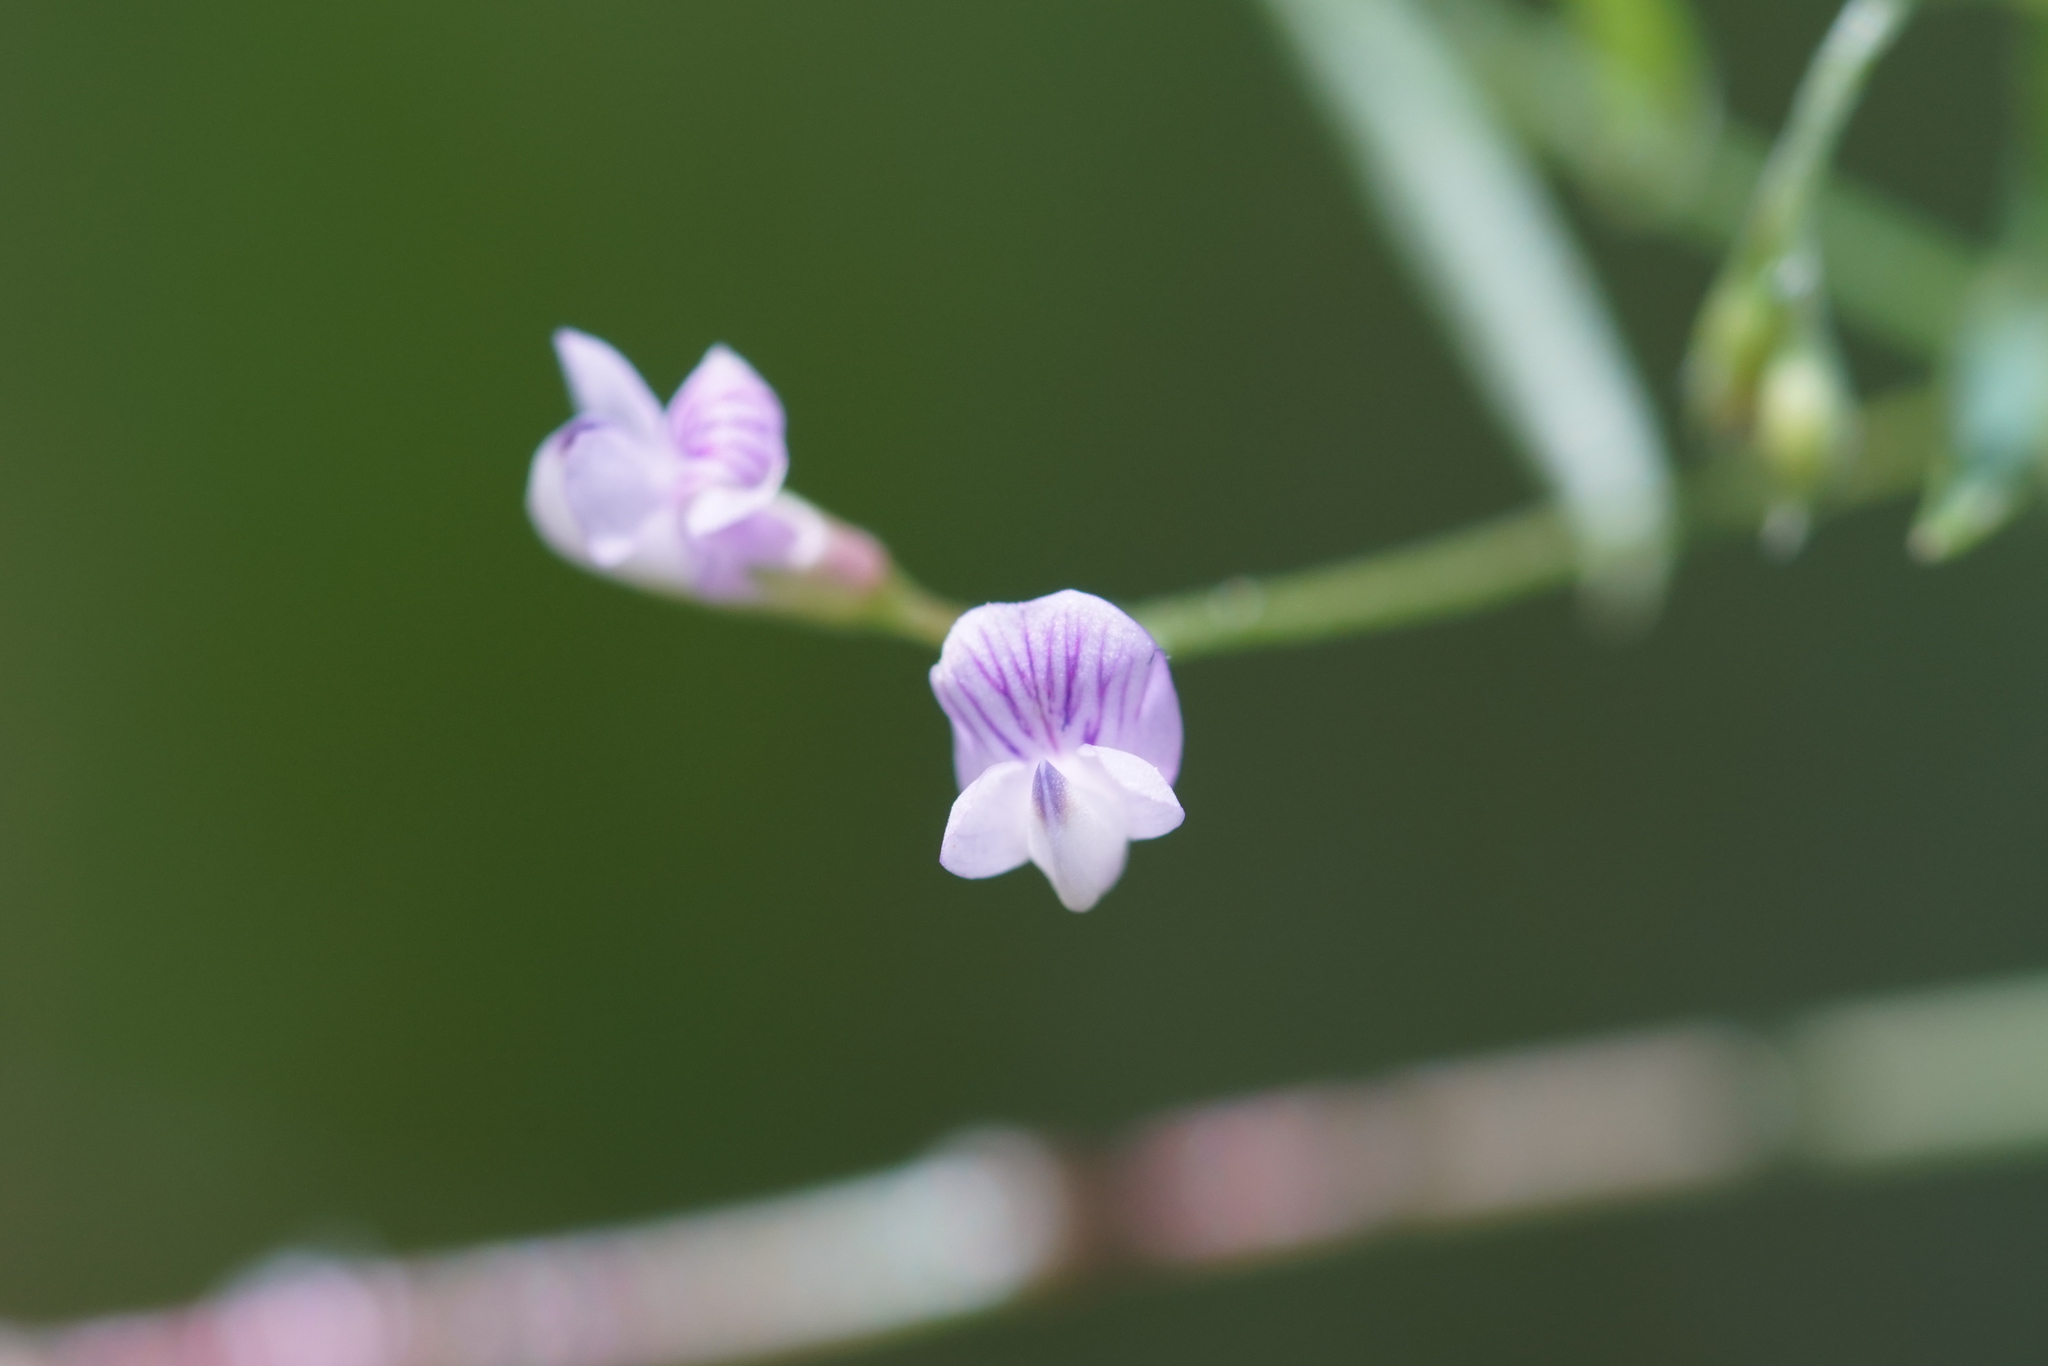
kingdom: Plantae
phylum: Tracheophyta
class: Magnoliopsida
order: Fabales
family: Fabaceae
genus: Vicia
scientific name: Vicia tetrasperma
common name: Smooth tare
